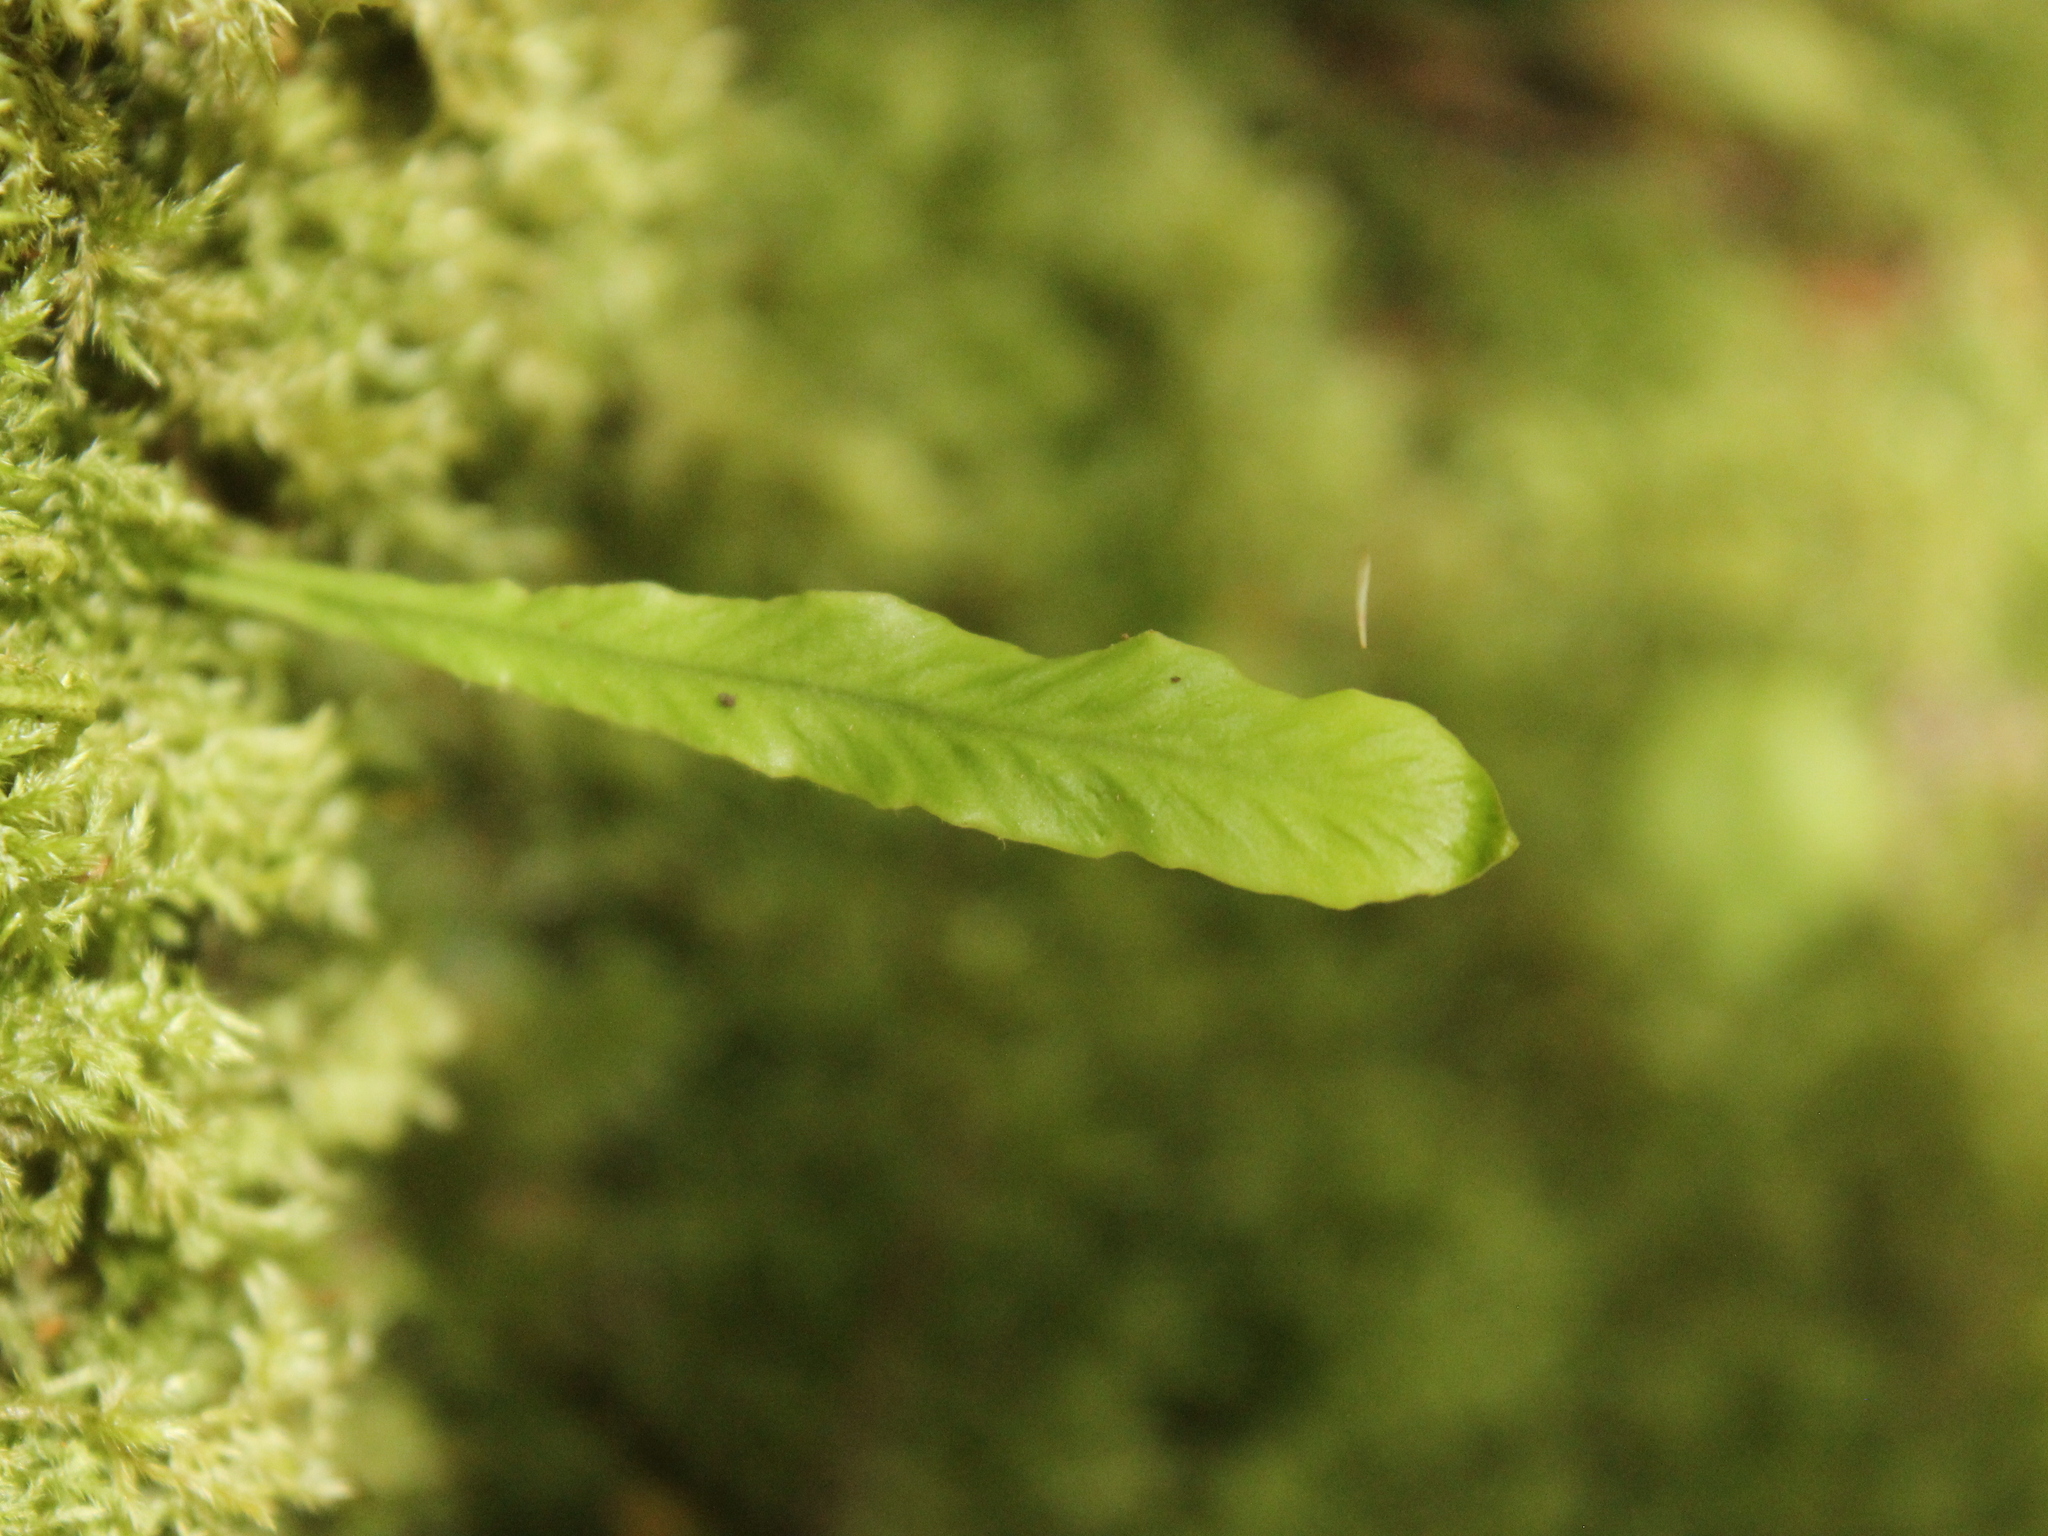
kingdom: Plantae
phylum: Tracheophyta
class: Polypodiopsida
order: Polypodiales
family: Polypodiaceae
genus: Notogrammitis
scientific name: Notogrammitis billardierei
